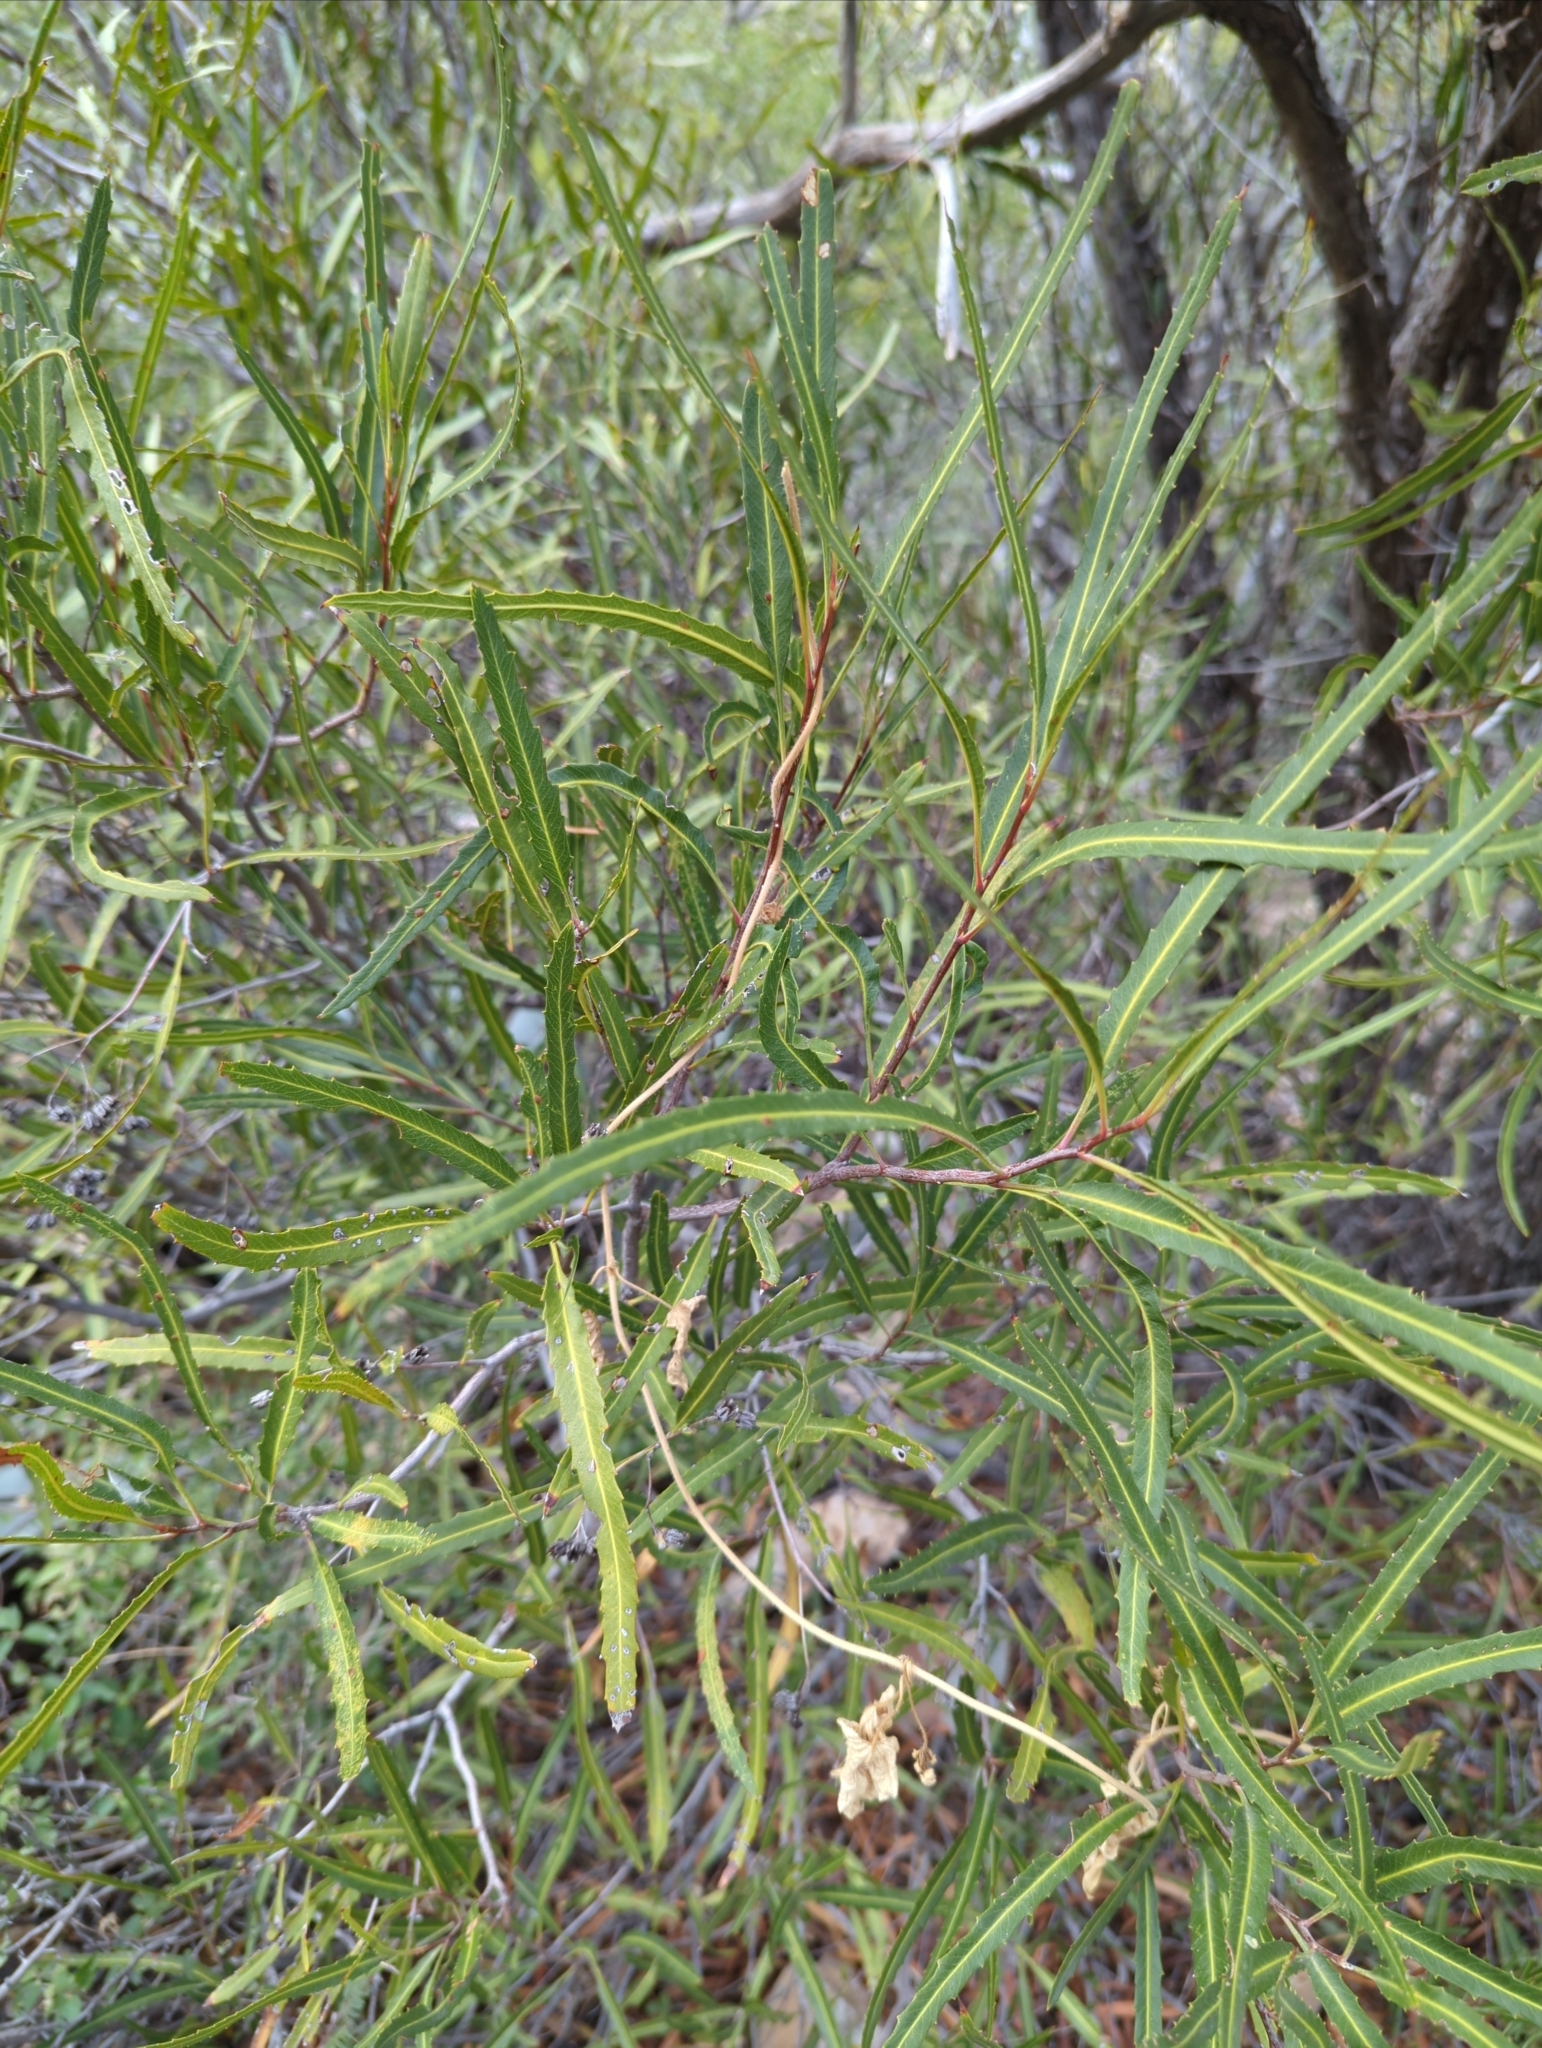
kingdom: Plantae
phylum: Tracheophyta
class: Magnoliopsida
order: Rosales
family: Rosaceae
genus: Vauquelinia
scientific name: Vauquelinia corymbosa
